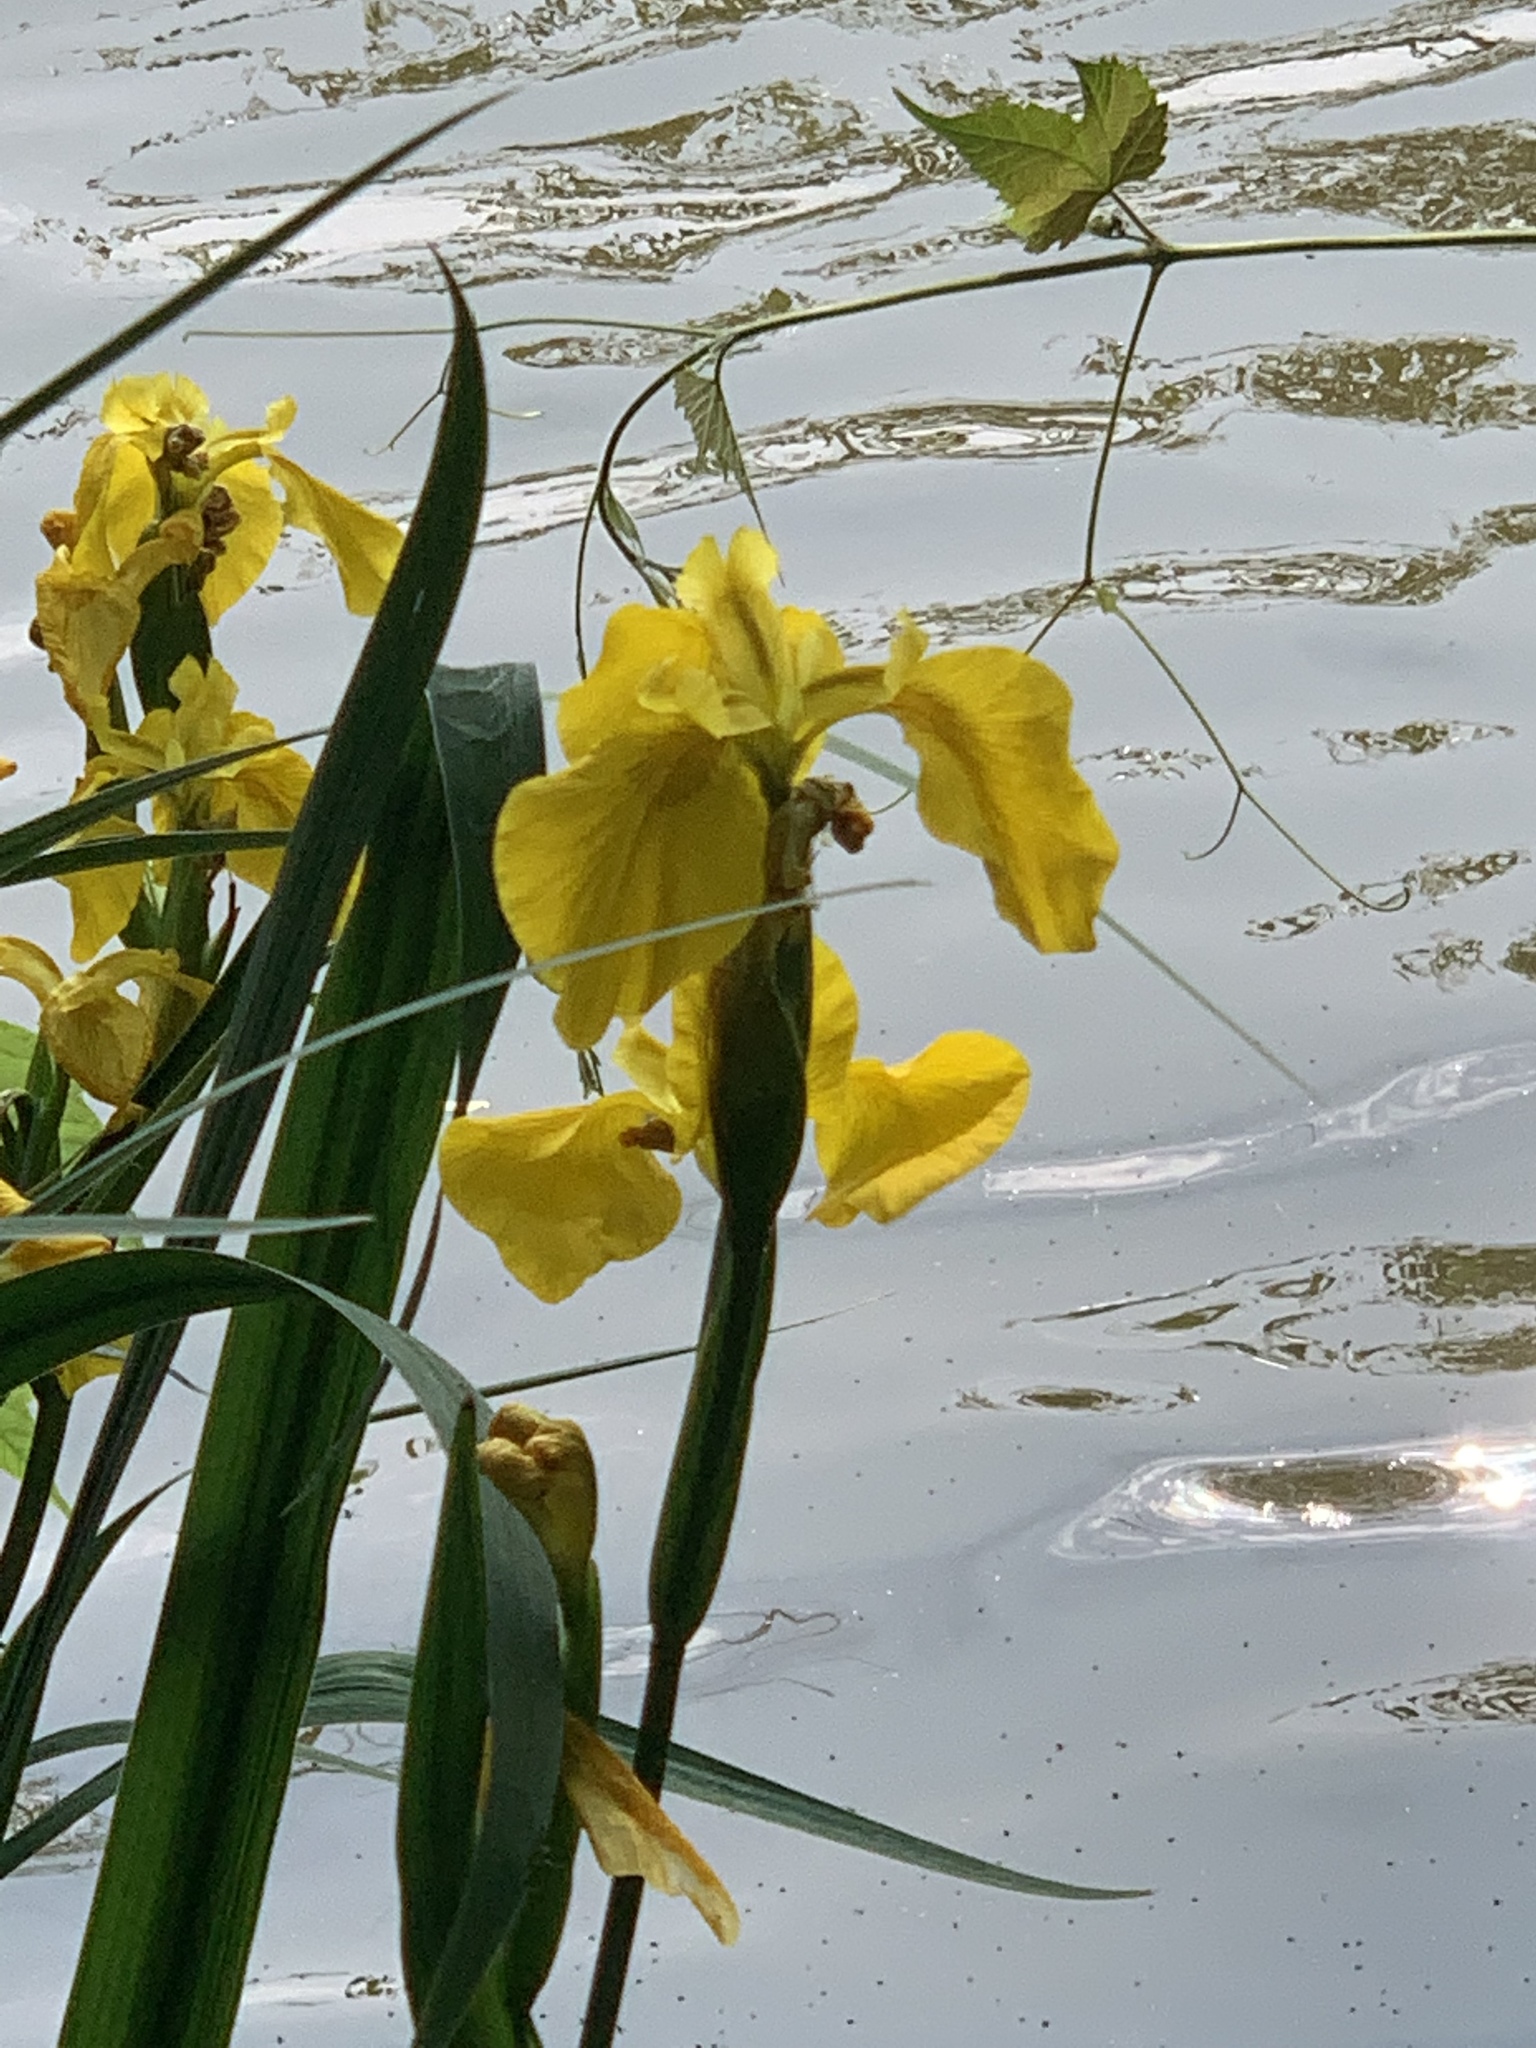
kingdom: Plantae
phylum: Tracheophyta
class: Liliopsida
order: Asparagales
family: Iridaceae
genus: Iris
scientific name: Iris pseudacorus
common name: Yellow flag
